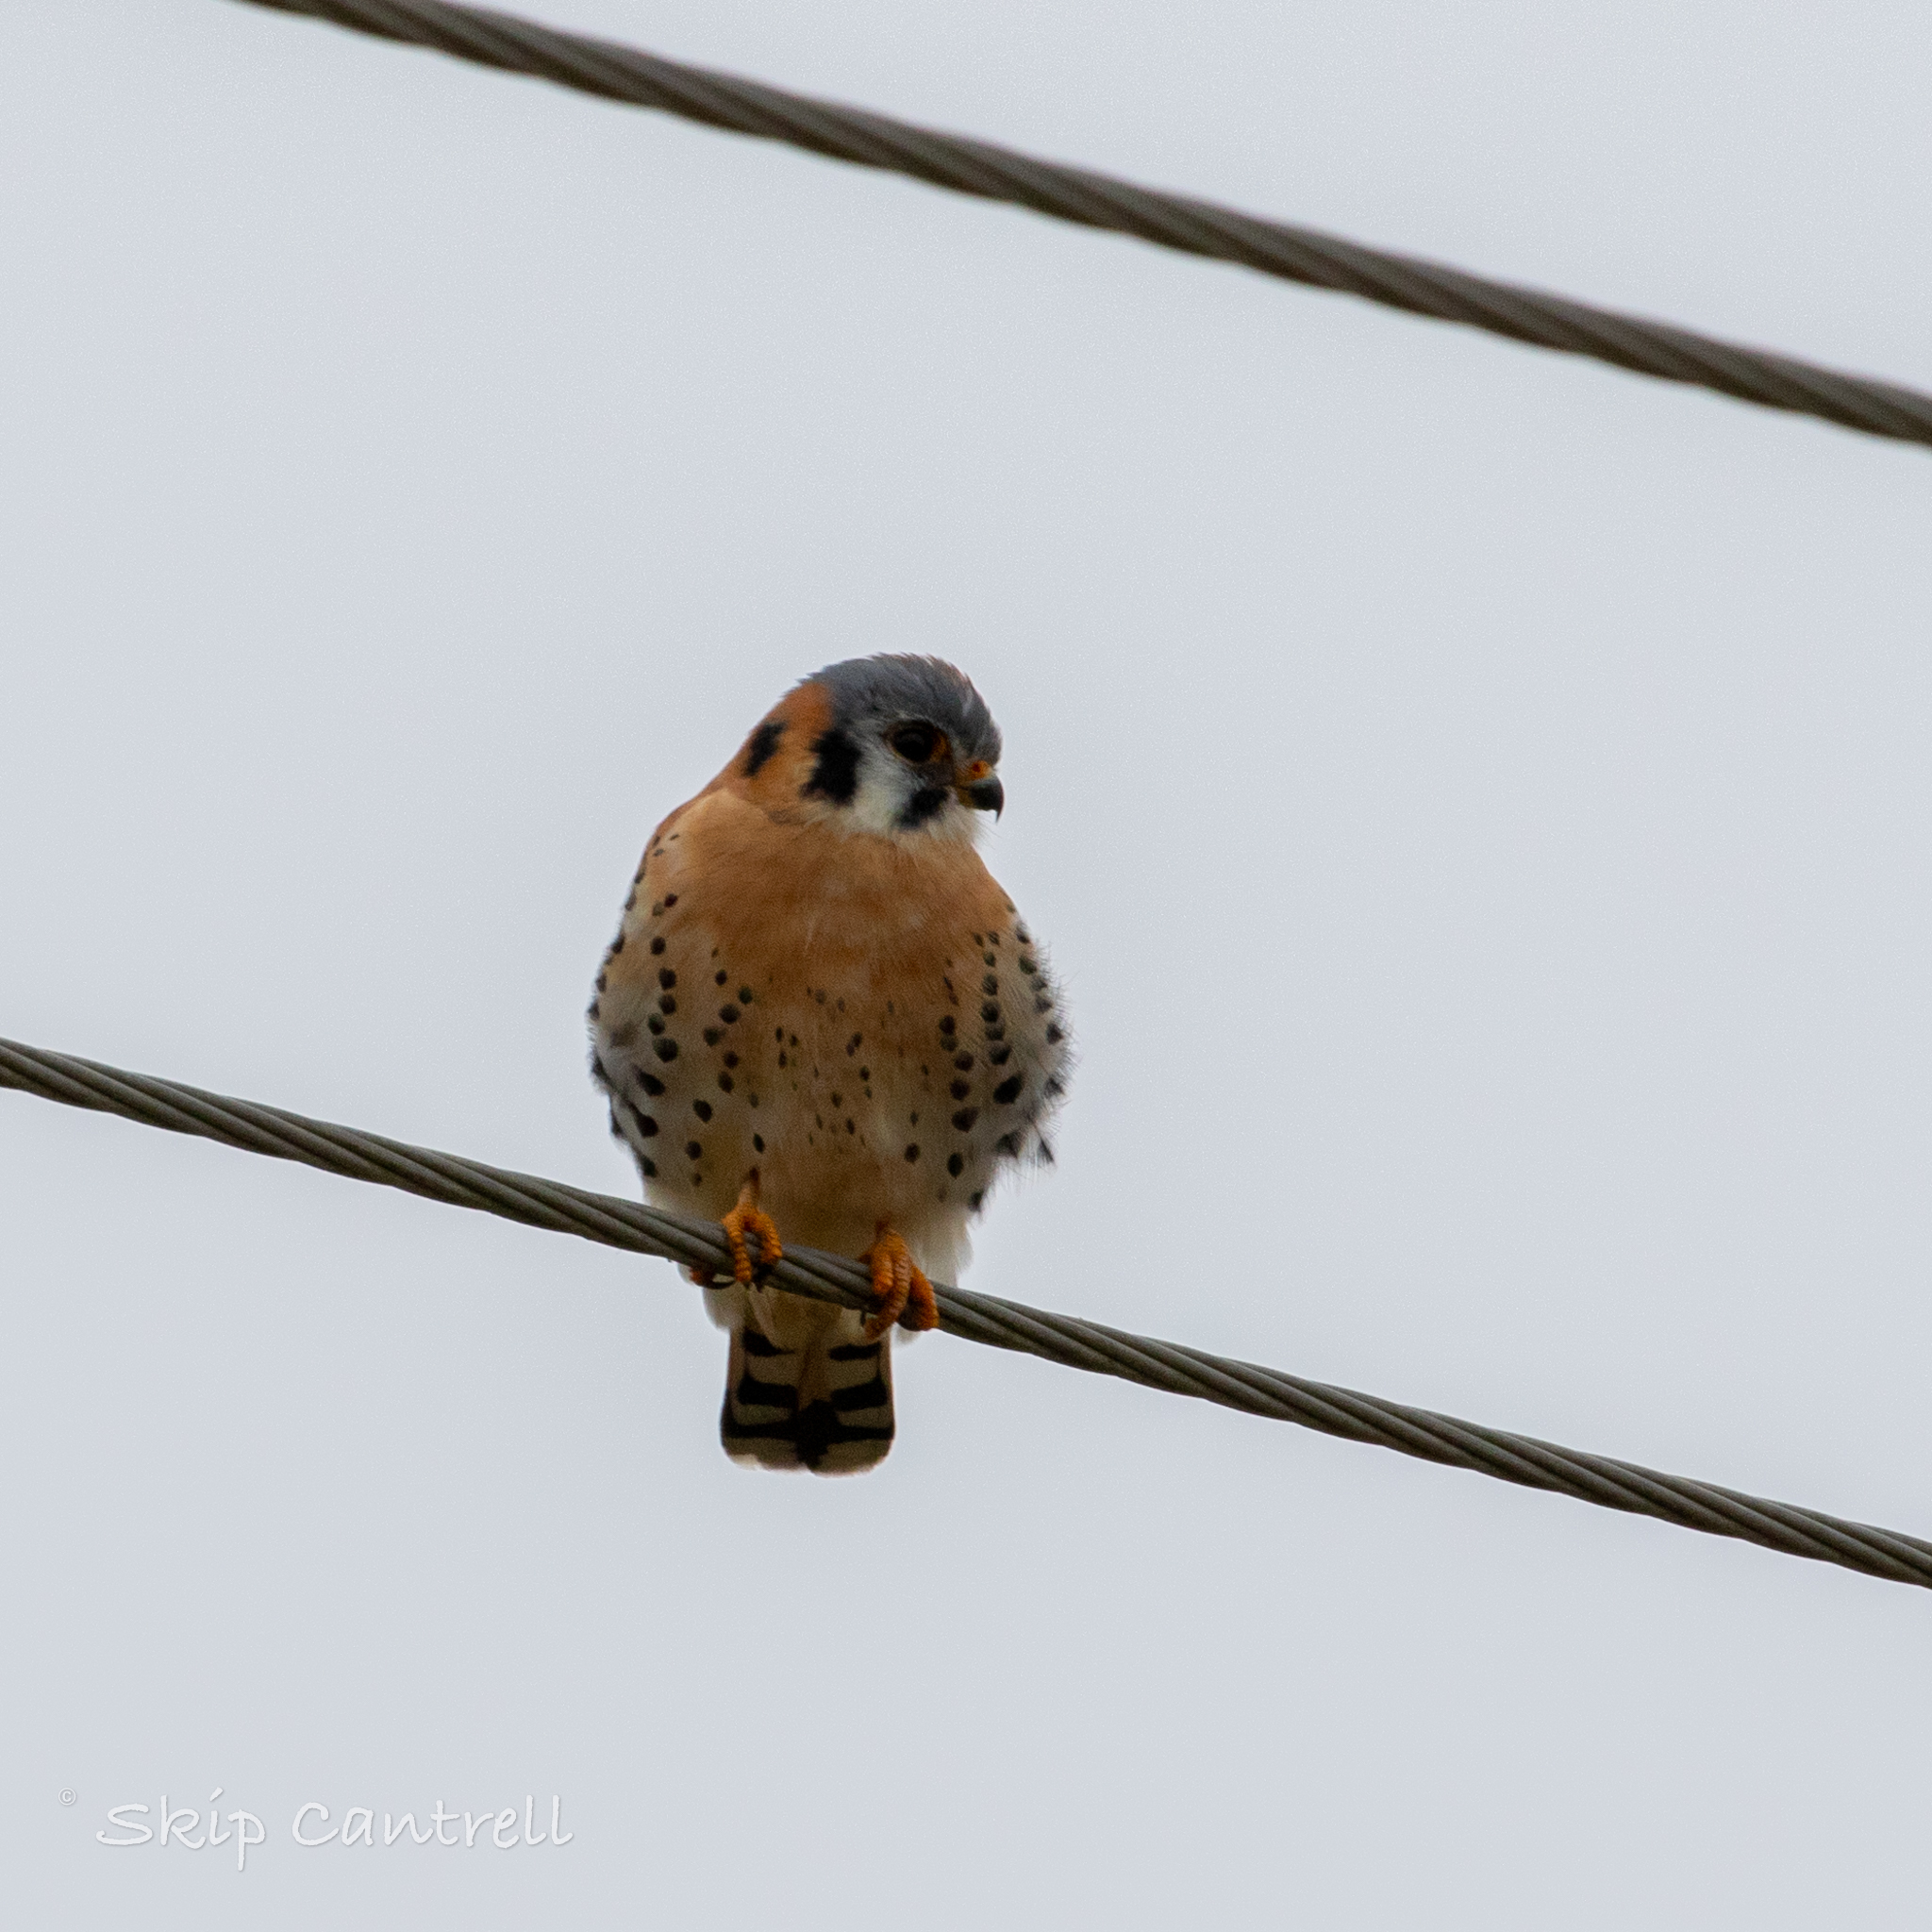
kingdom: Animalia
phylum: Chordata
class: Aves
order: Falconiformes
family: Falconidae
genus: Falco
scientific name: Falco sparverius
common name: American kestrel
